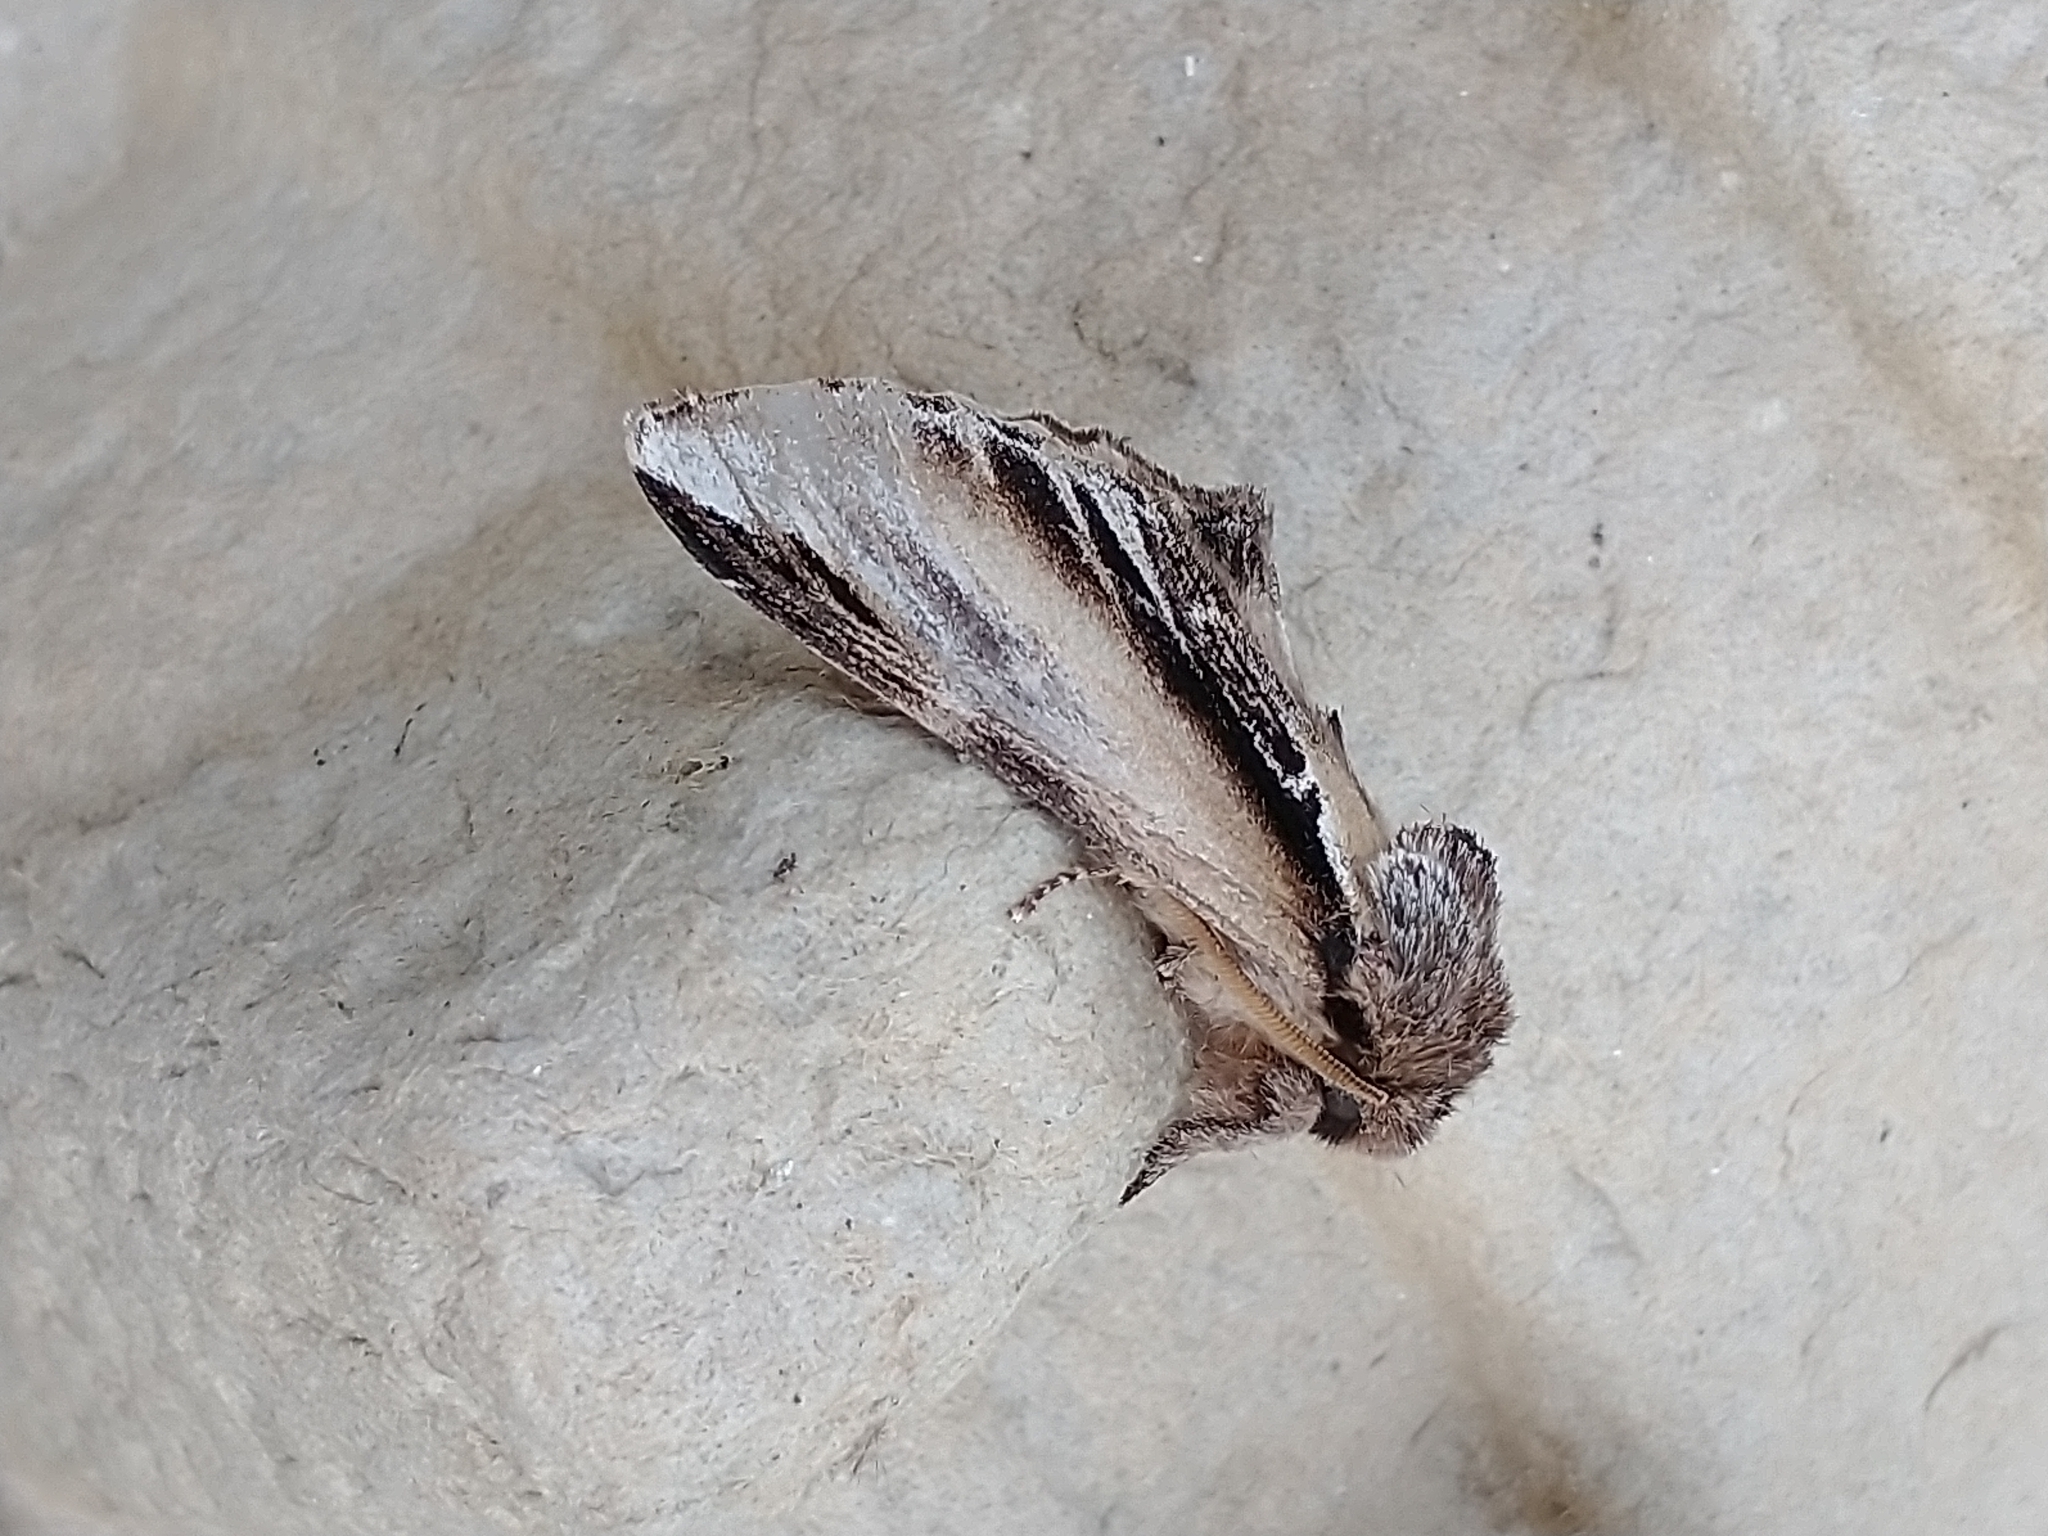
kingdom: Animalia
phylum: Arthropoda
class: Insecta
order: Lepidoptera
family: Notodontidae
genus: Pheosia
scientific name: Pheosia gnoma
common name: Lesser swallow prominent
